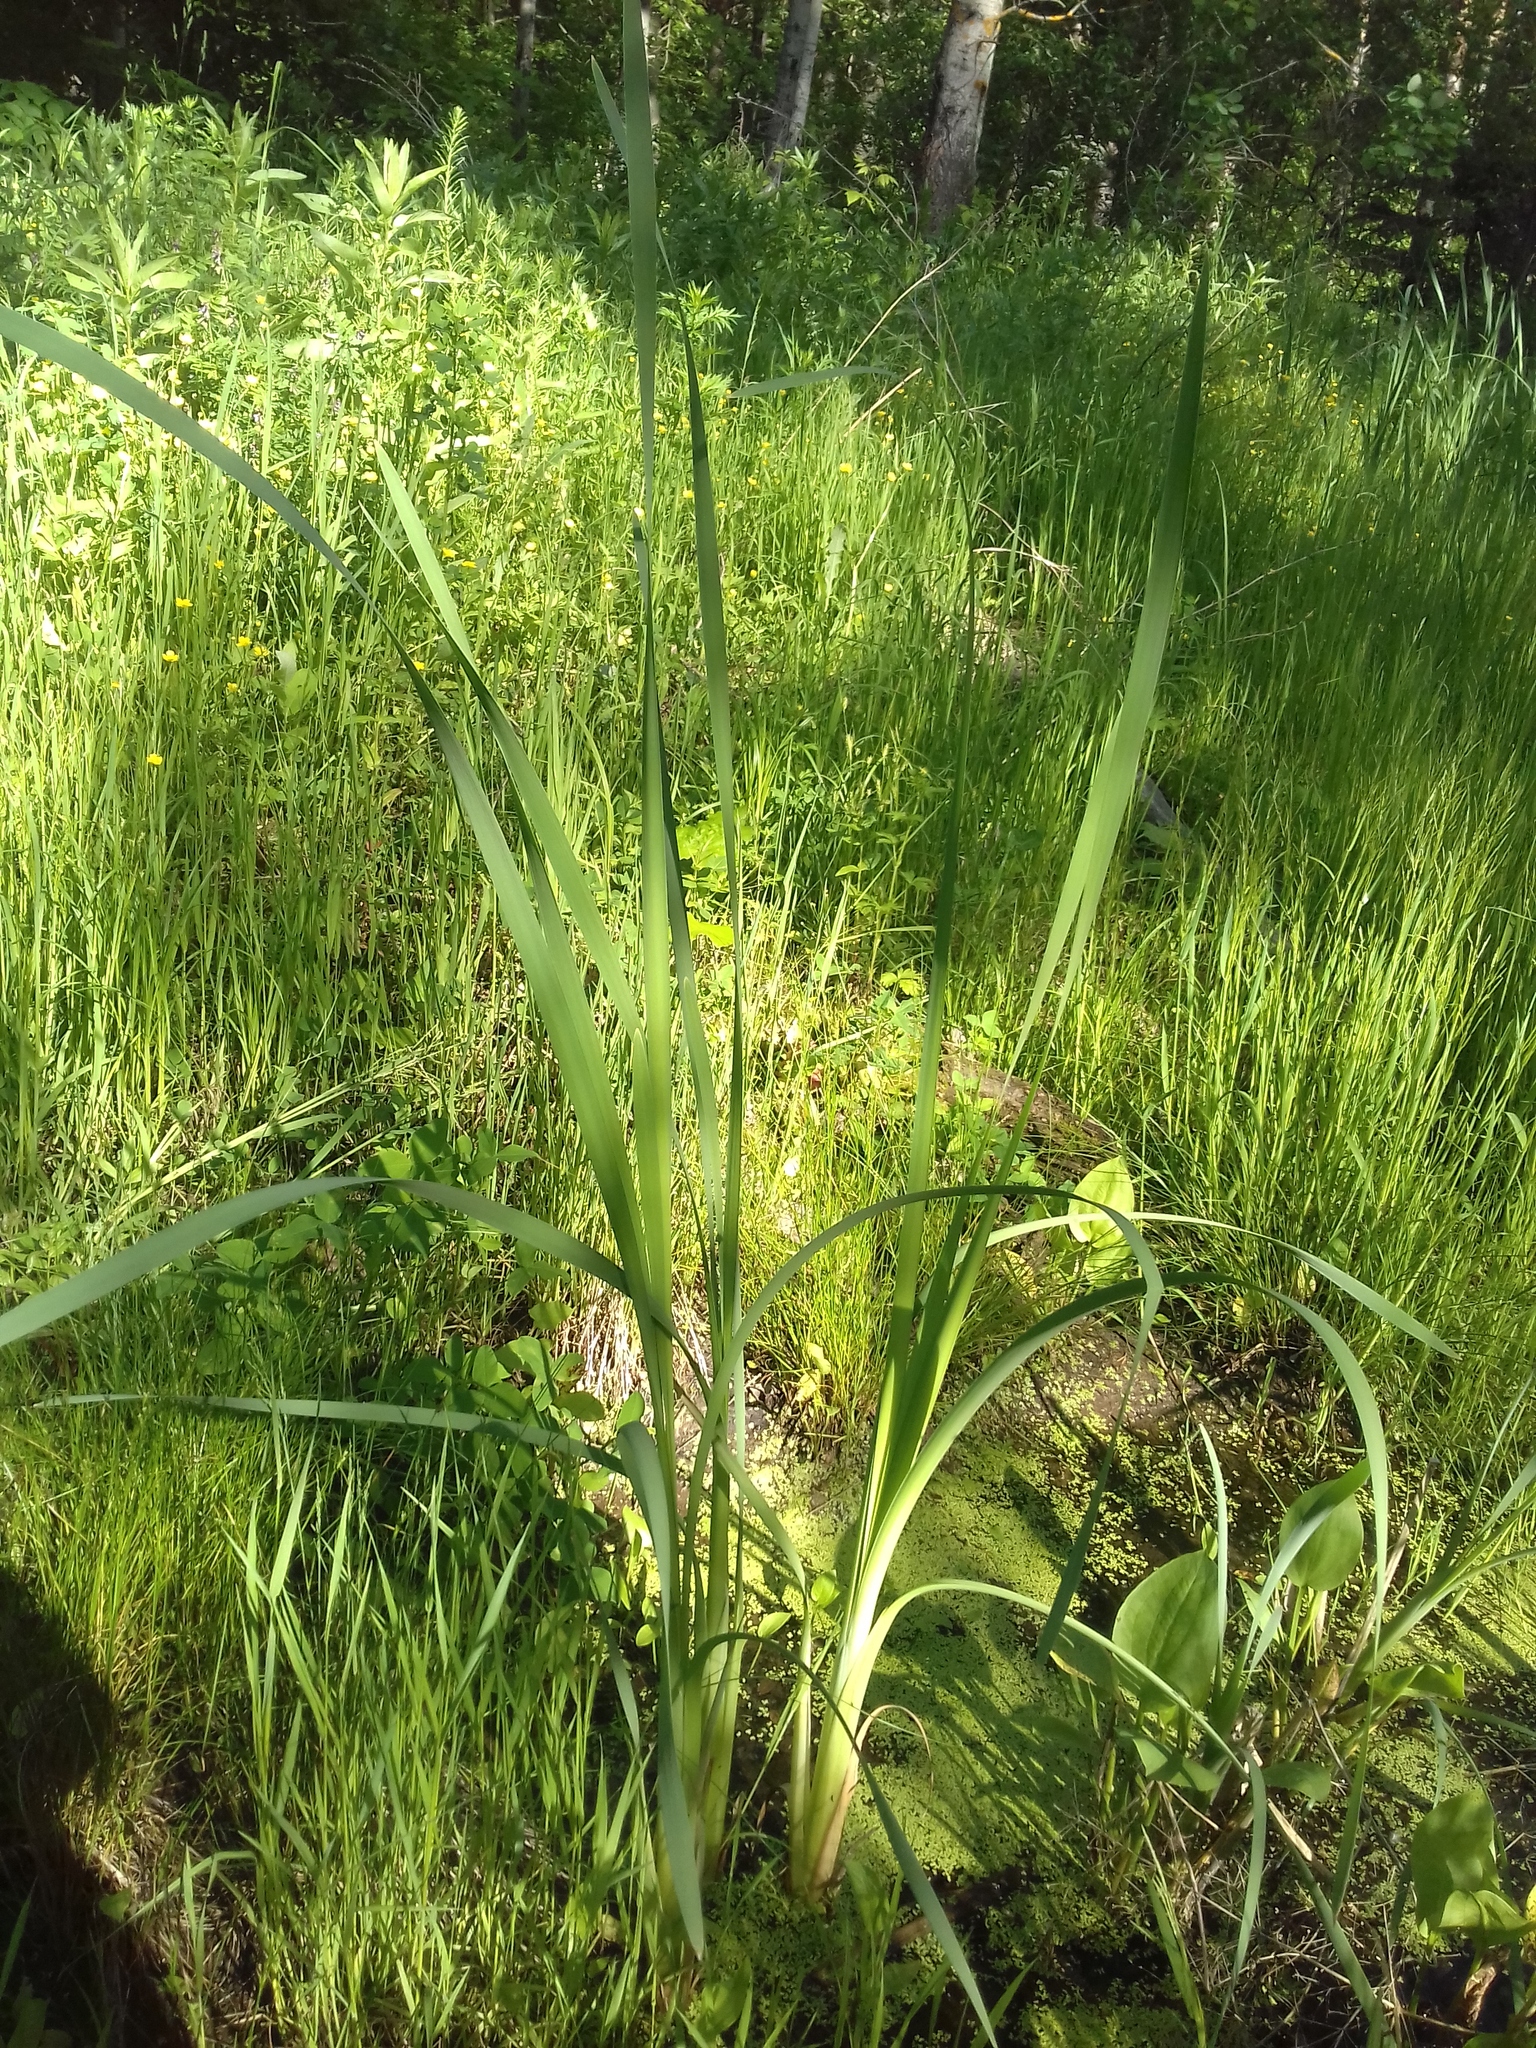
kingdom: Plantae
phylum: Tracheophyta
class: Liliopsida
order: Poales
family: Typhaceae
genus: Typha
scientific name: Typha latifolia
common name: Broadleaf cattail
